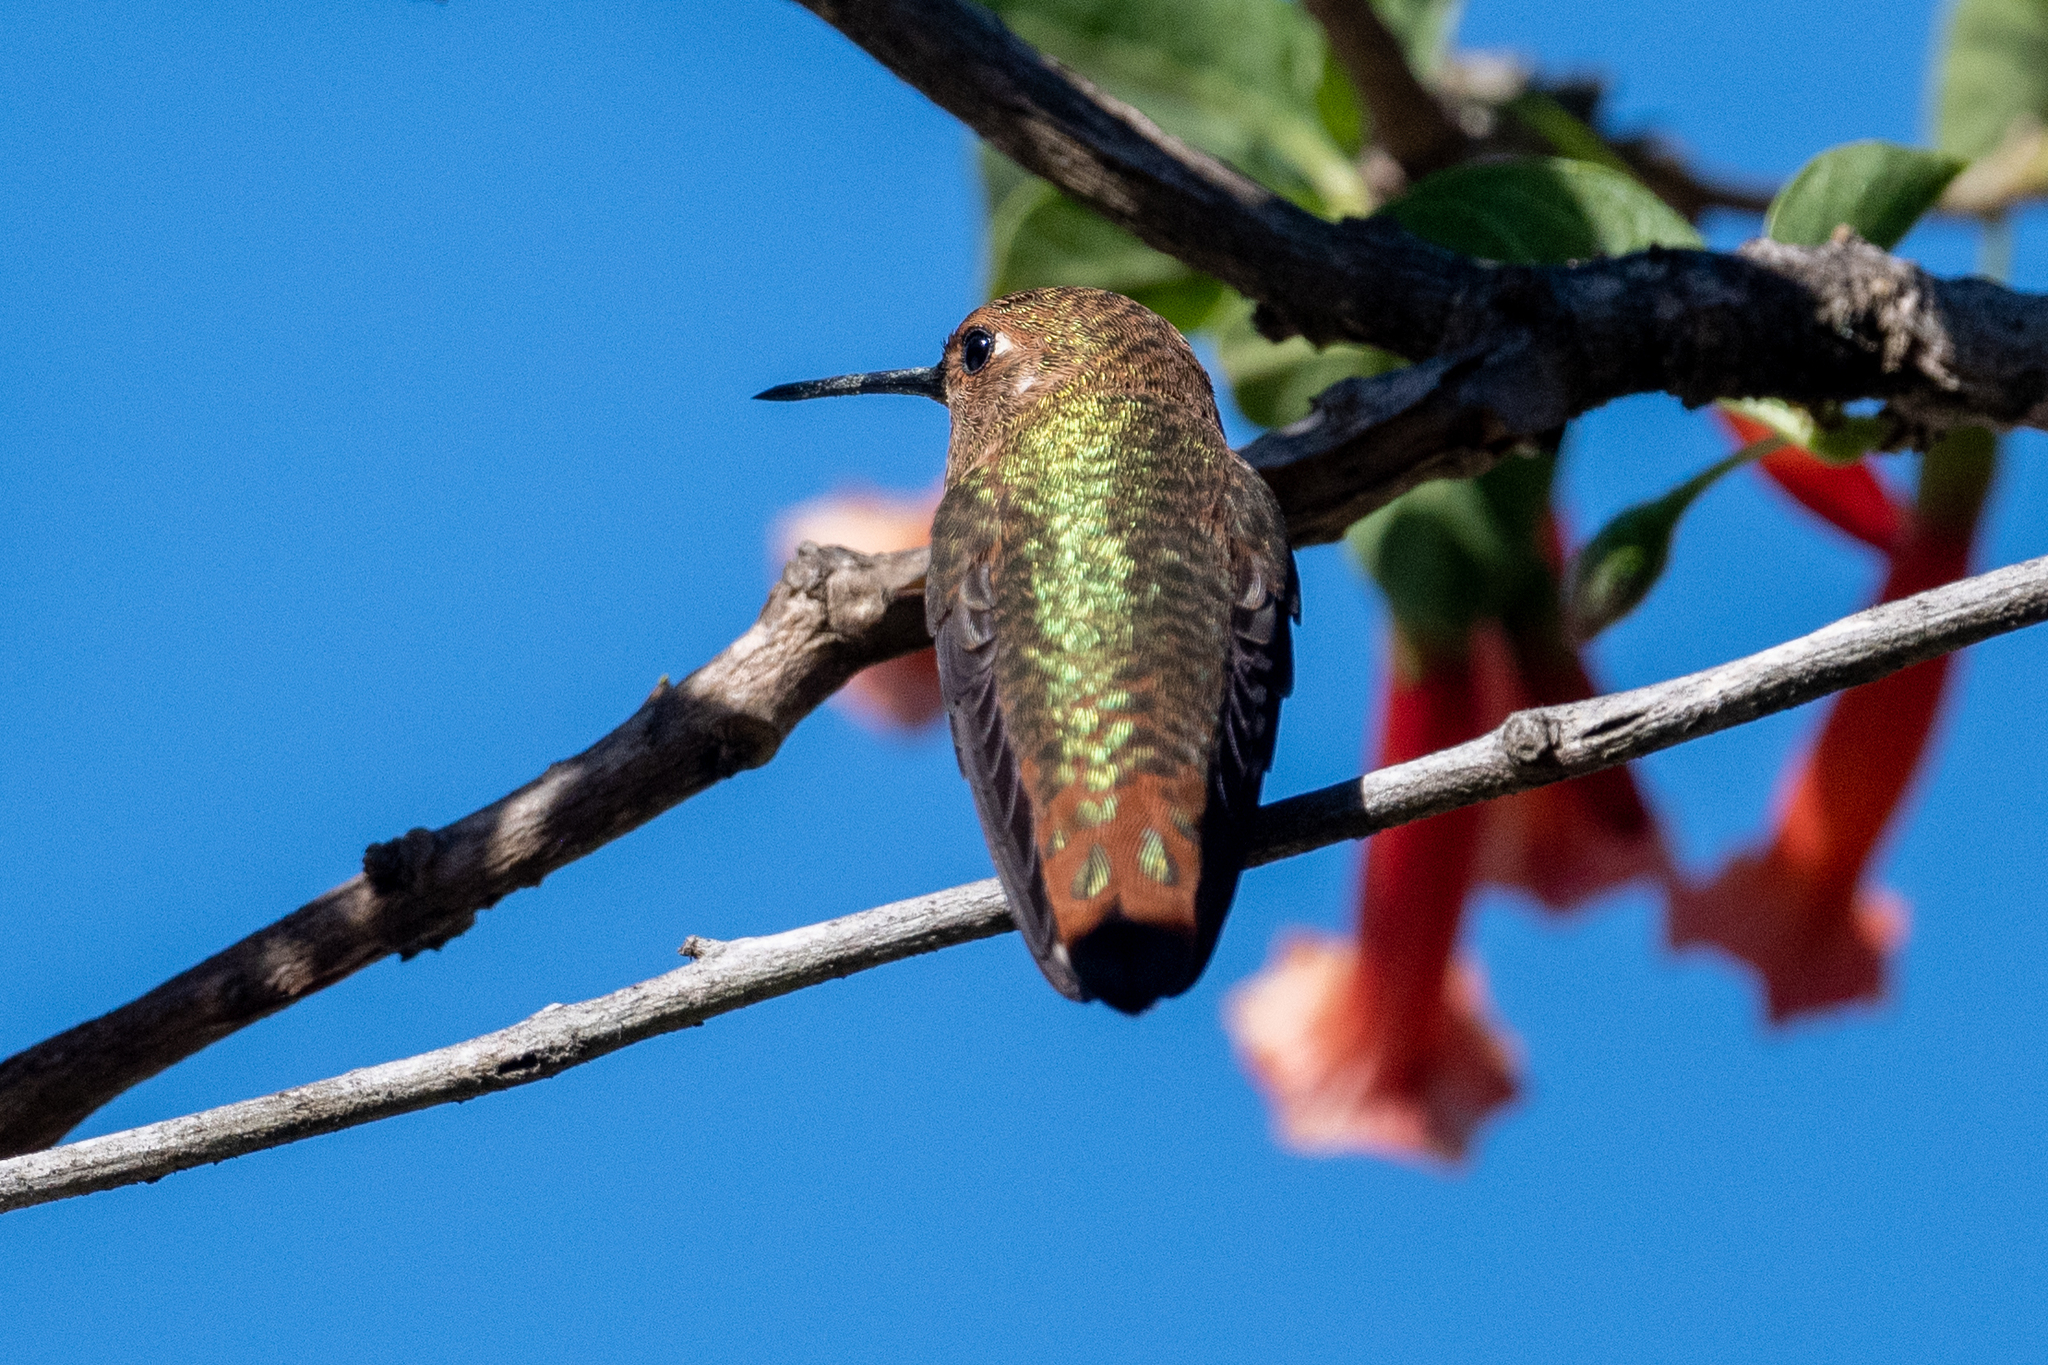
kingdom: Animalia
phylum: Chordata
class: Aves
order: Apodiformes
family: Trochilidae
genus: Selasphorus
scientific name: Selasphorus
